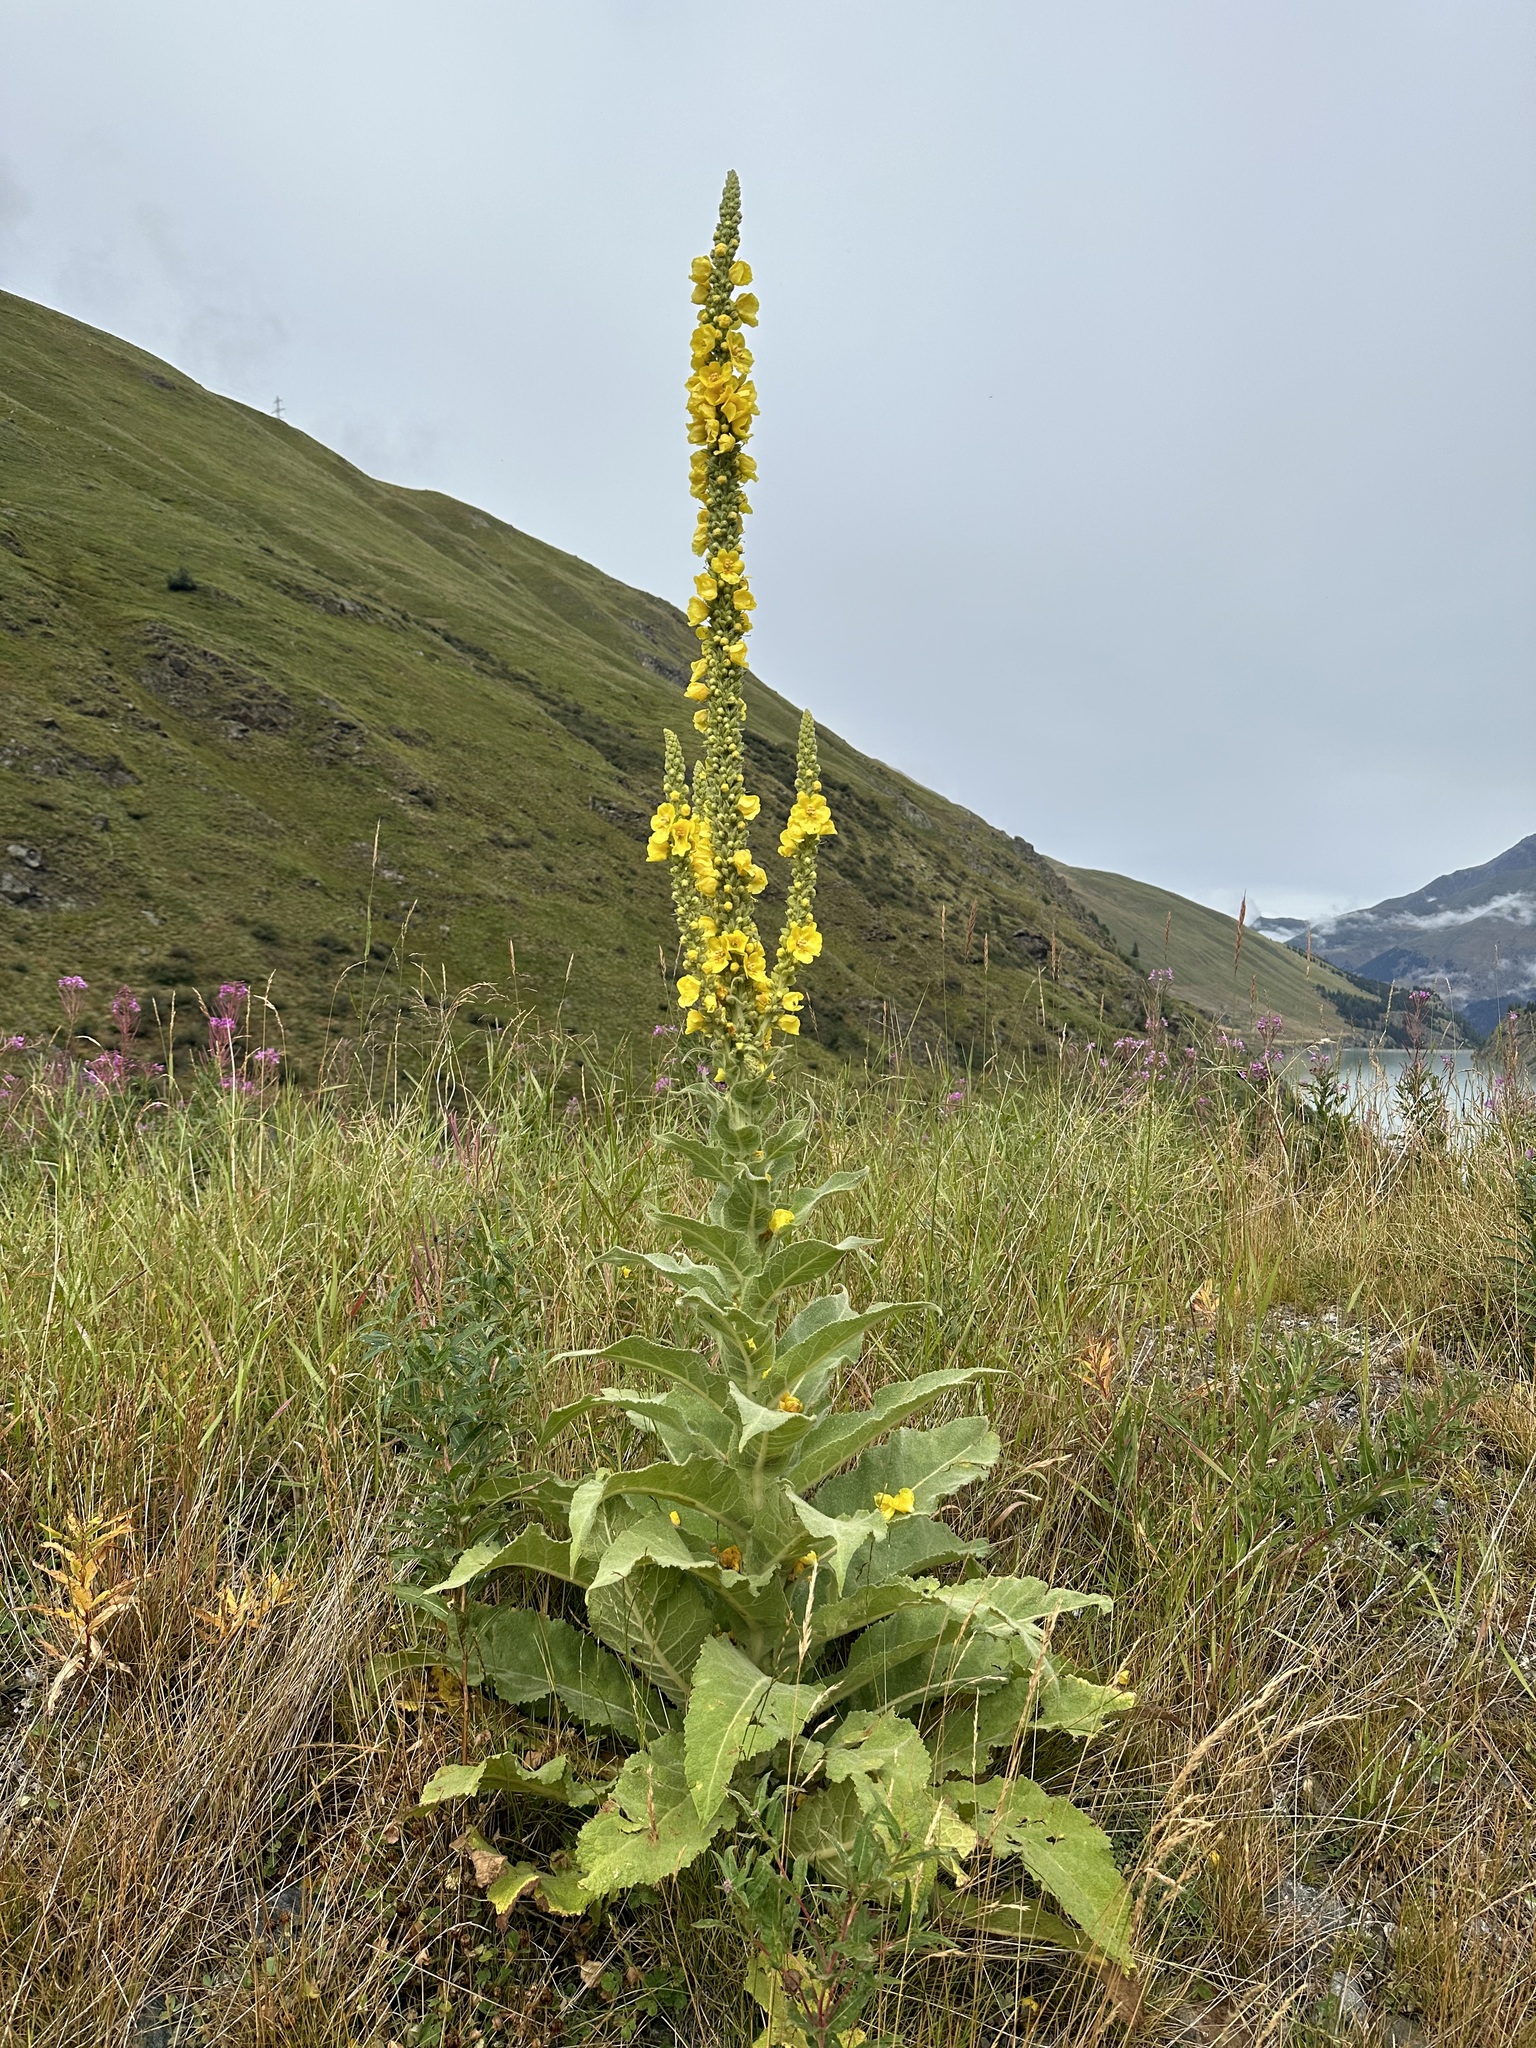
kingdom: Plantae
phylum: Tracheophyta
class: Magnoliopsida
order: Lamiales
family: Scrophulariaceae
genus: Verbascum
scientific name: Verbascum densiflorum
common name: Dense-flowered mullein
